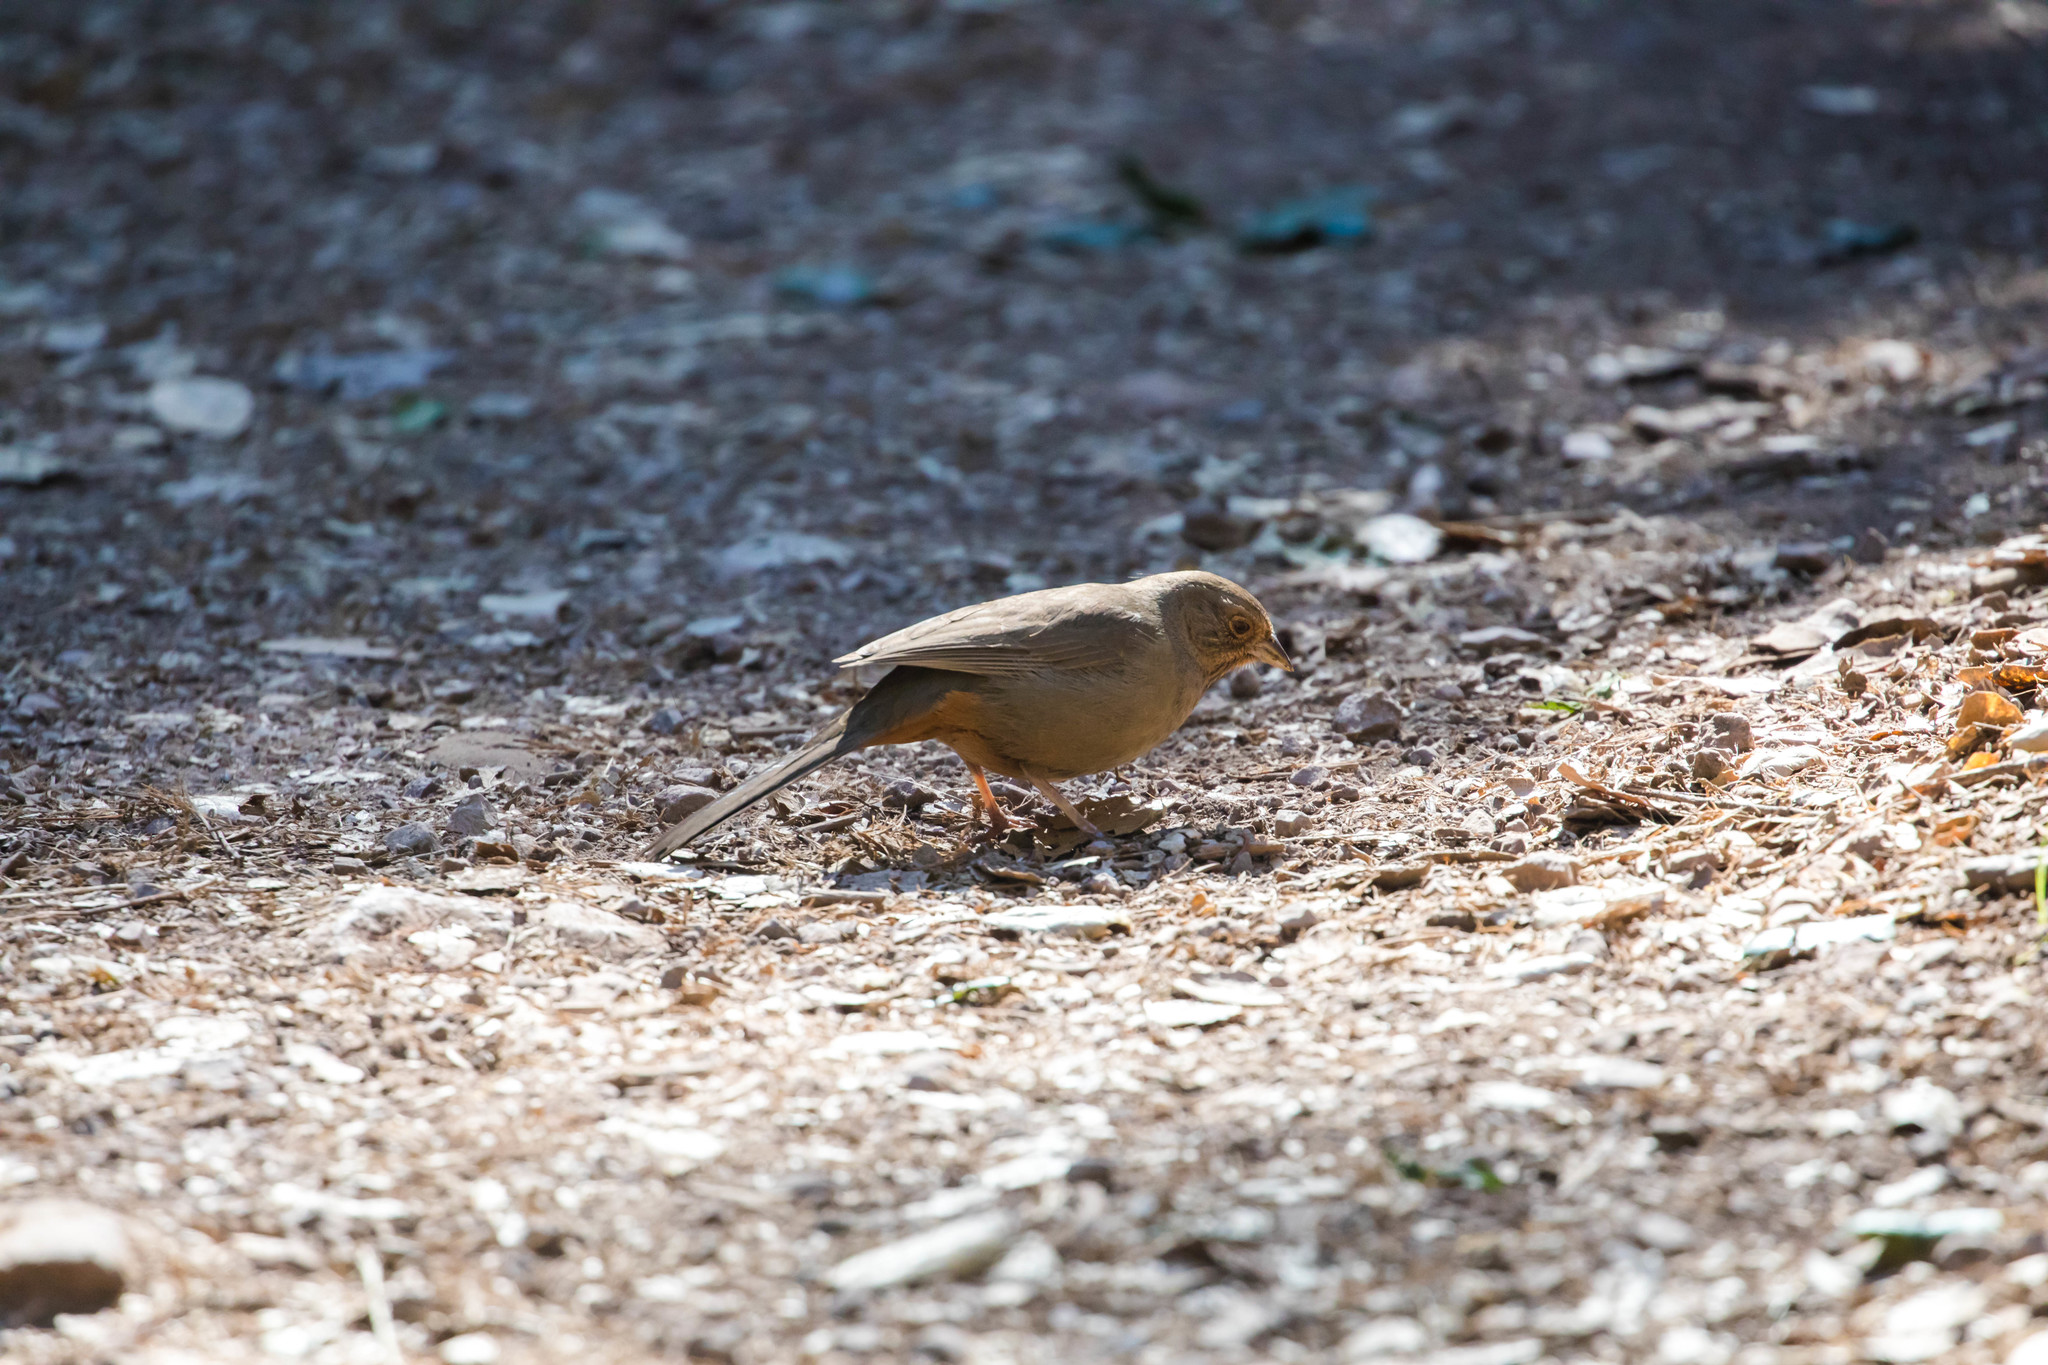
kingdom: Animalia
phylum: Chordata
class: Aves
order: Passeriformes
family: Passerellidae
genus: Melozone
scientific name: Melozone crissalis
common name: California towhee
